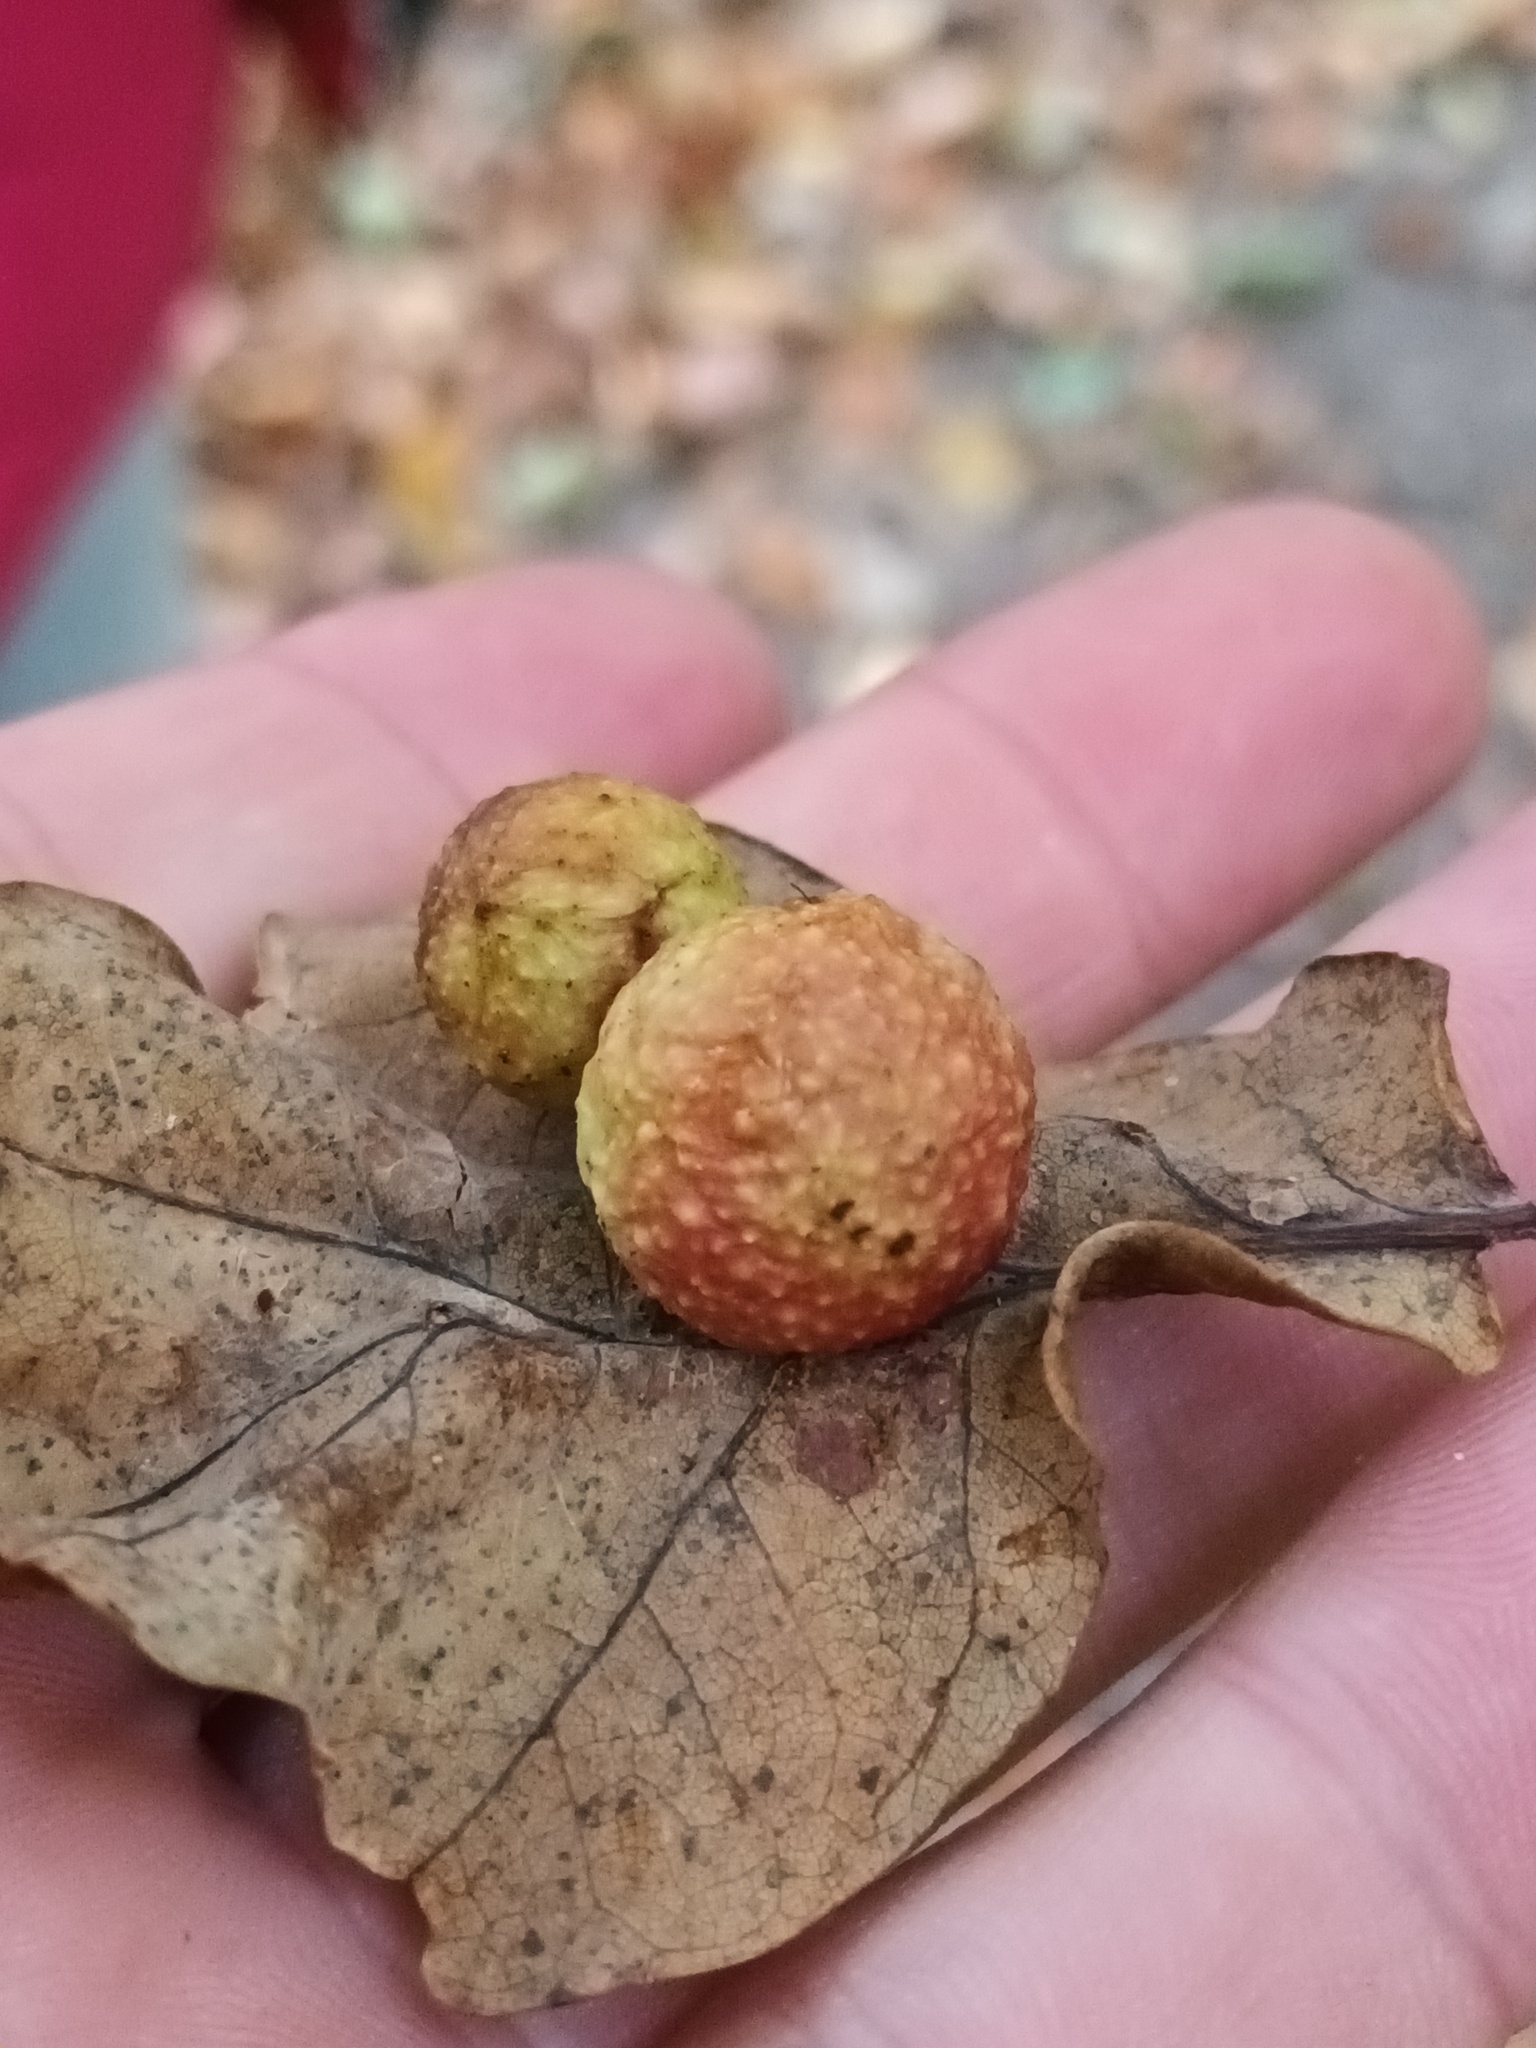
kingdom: Animalia
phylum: Arthropoda
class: Insecta
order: Hymenoptera
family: Cynipidae
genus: Cynips
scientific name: Cynips quercusfolii
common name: Cherry gall
